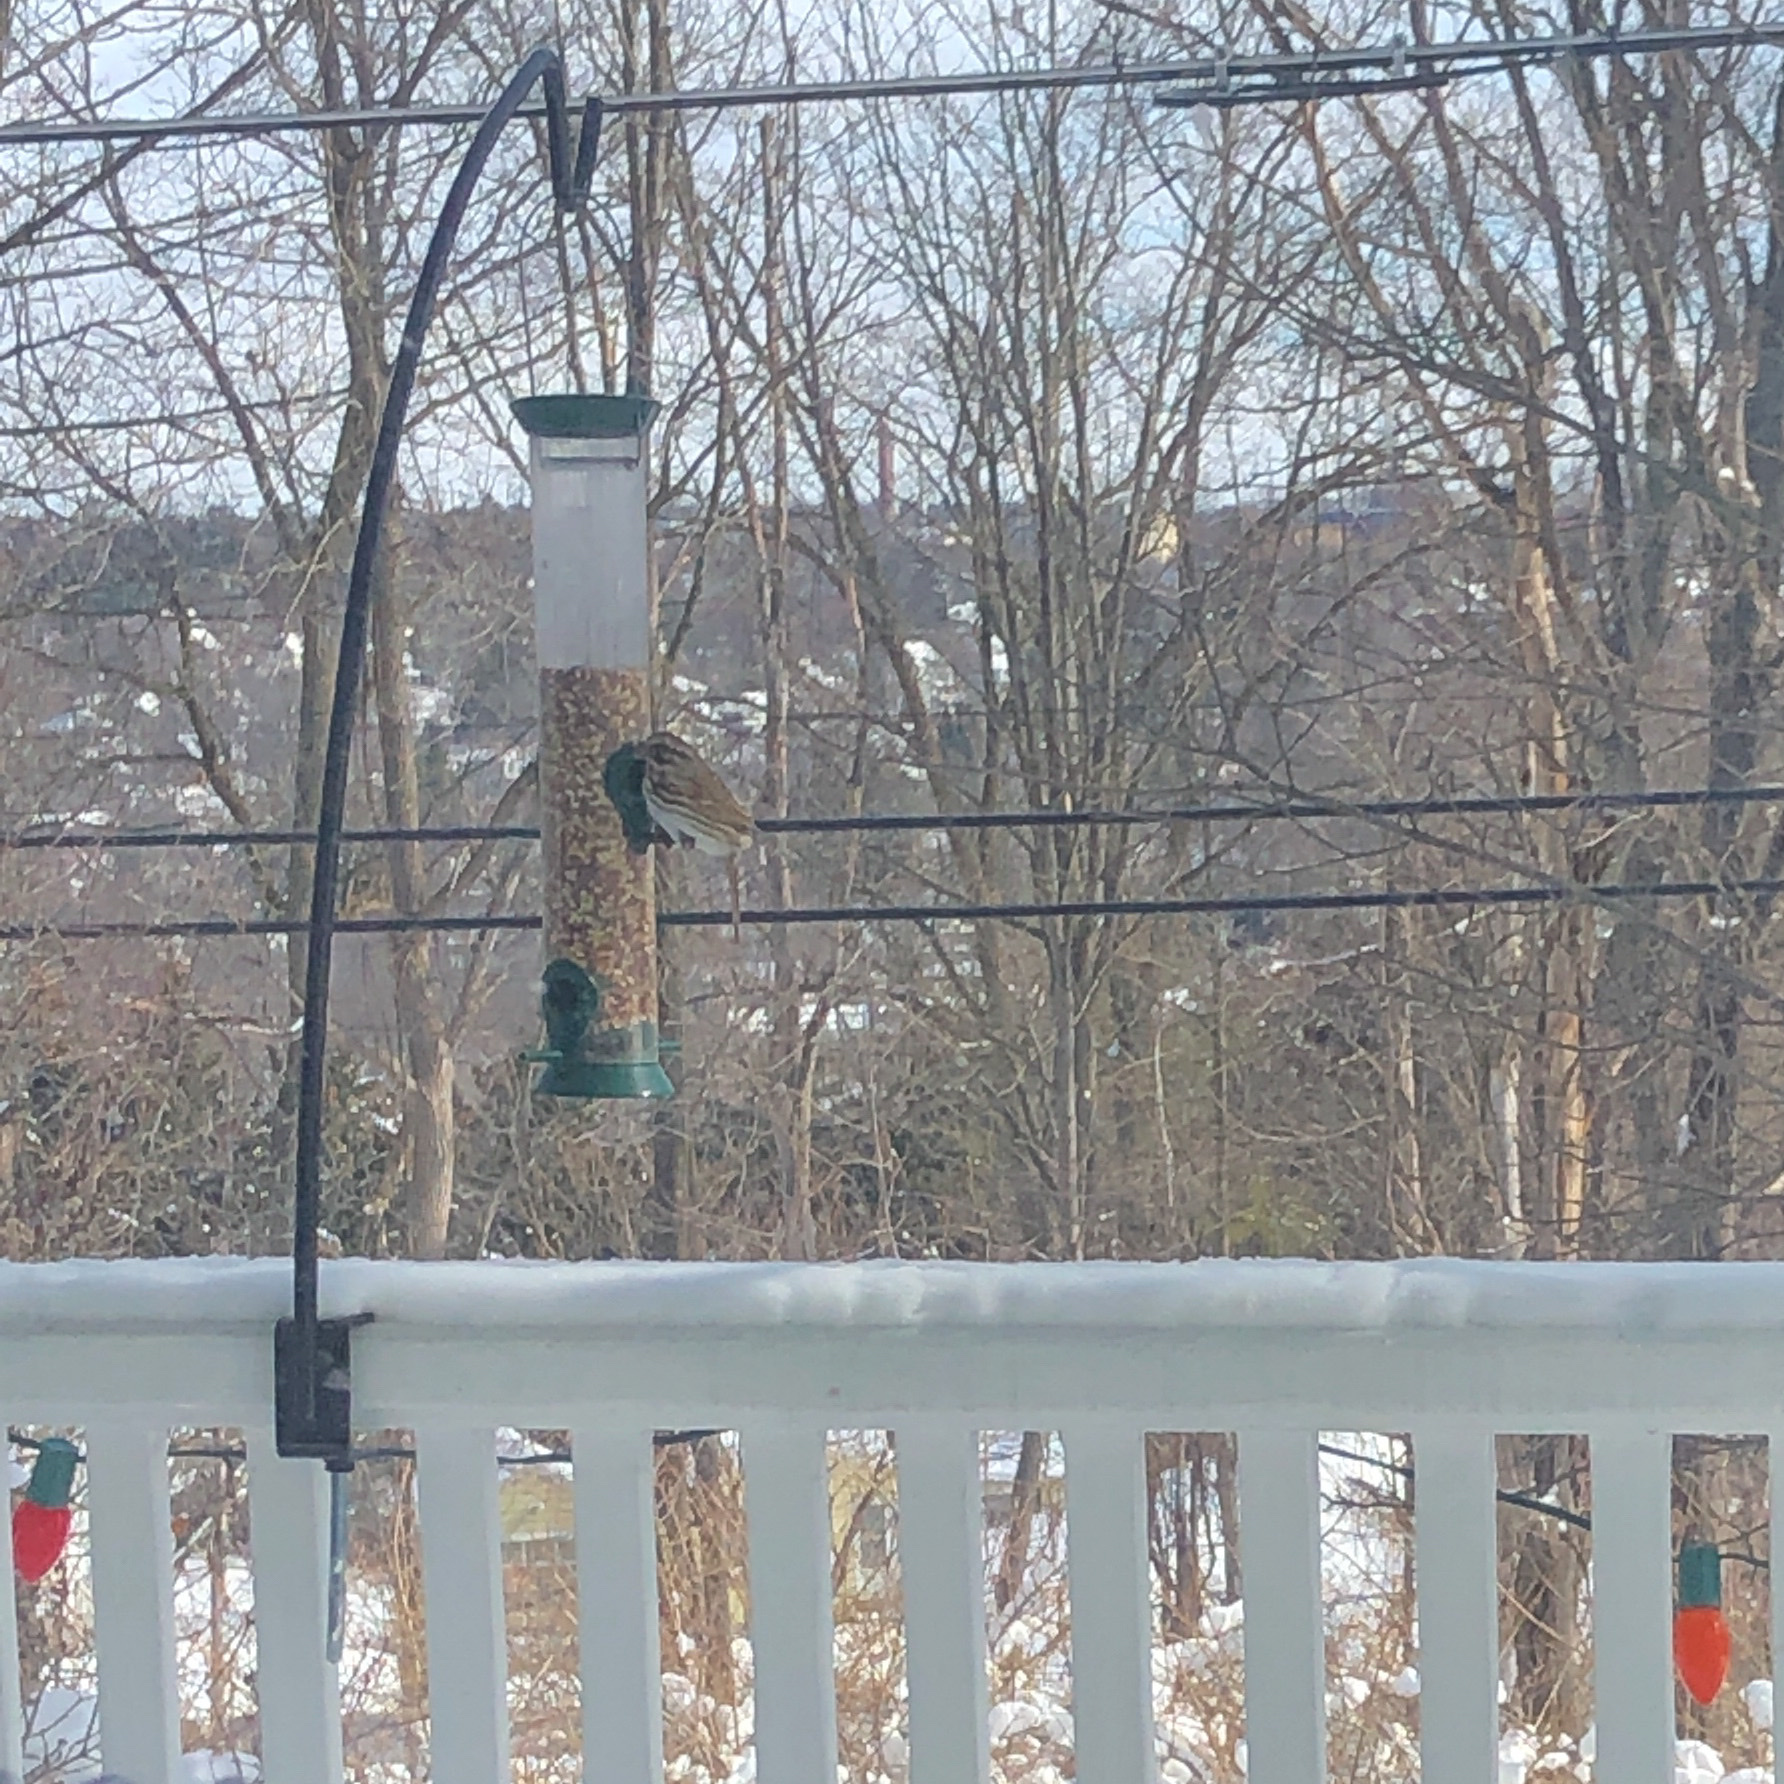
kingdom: Animalia
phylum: Chordata
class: Aves
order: Passeriformes
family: Passerellidae
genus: Melospiza
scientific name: Melospiza melodia
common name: Song sparrow
